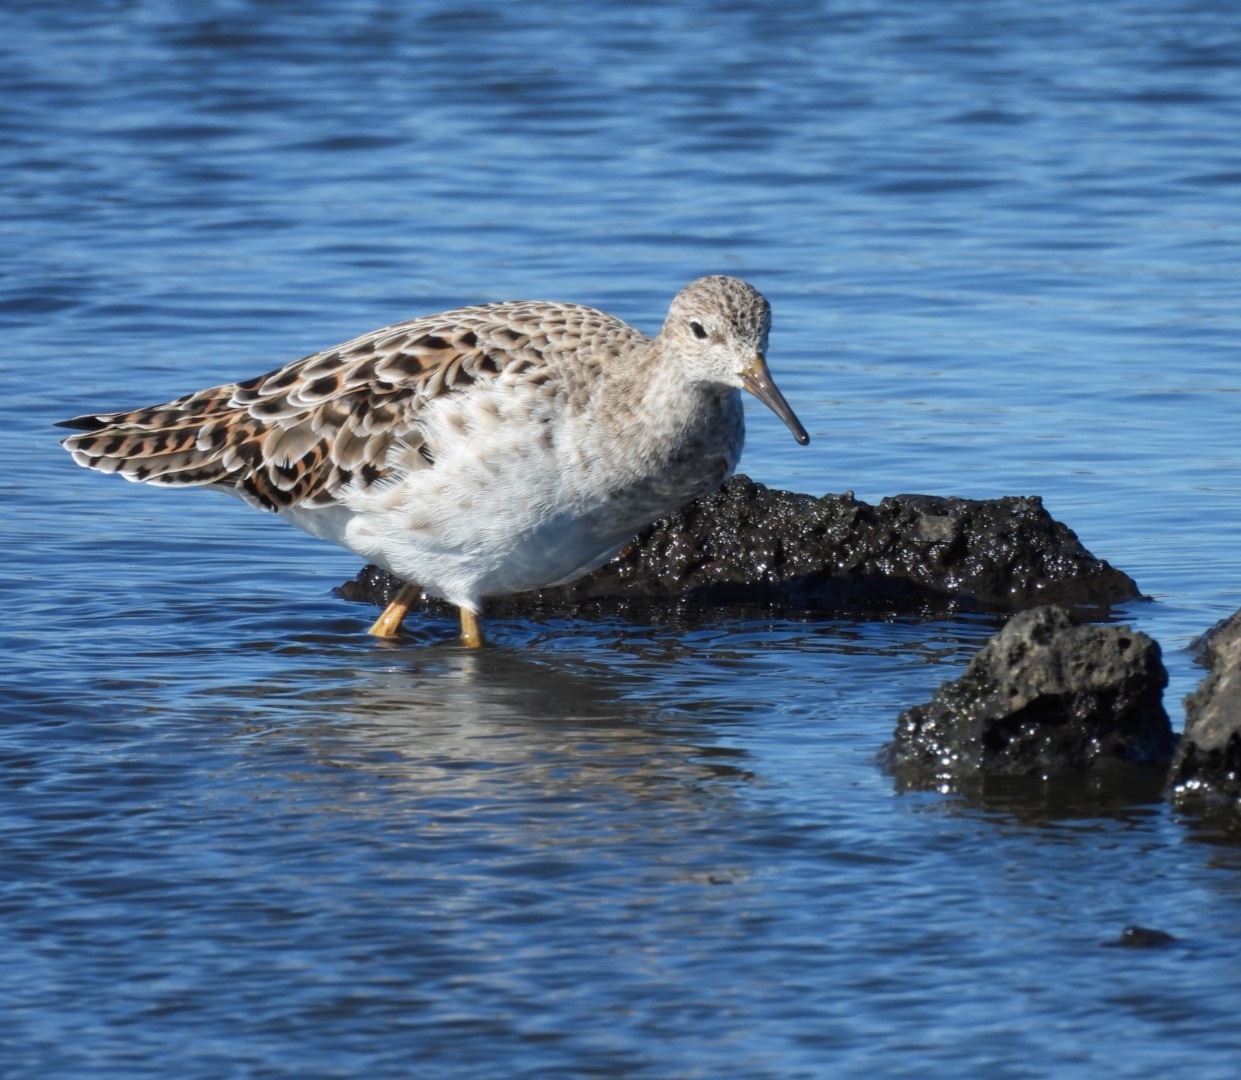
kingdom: Animalia
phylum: Chordata
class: Aves
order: Charadriiformes
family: Scolopacidae
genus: Calidris
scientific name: Calidris pugnax
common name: Ruff
